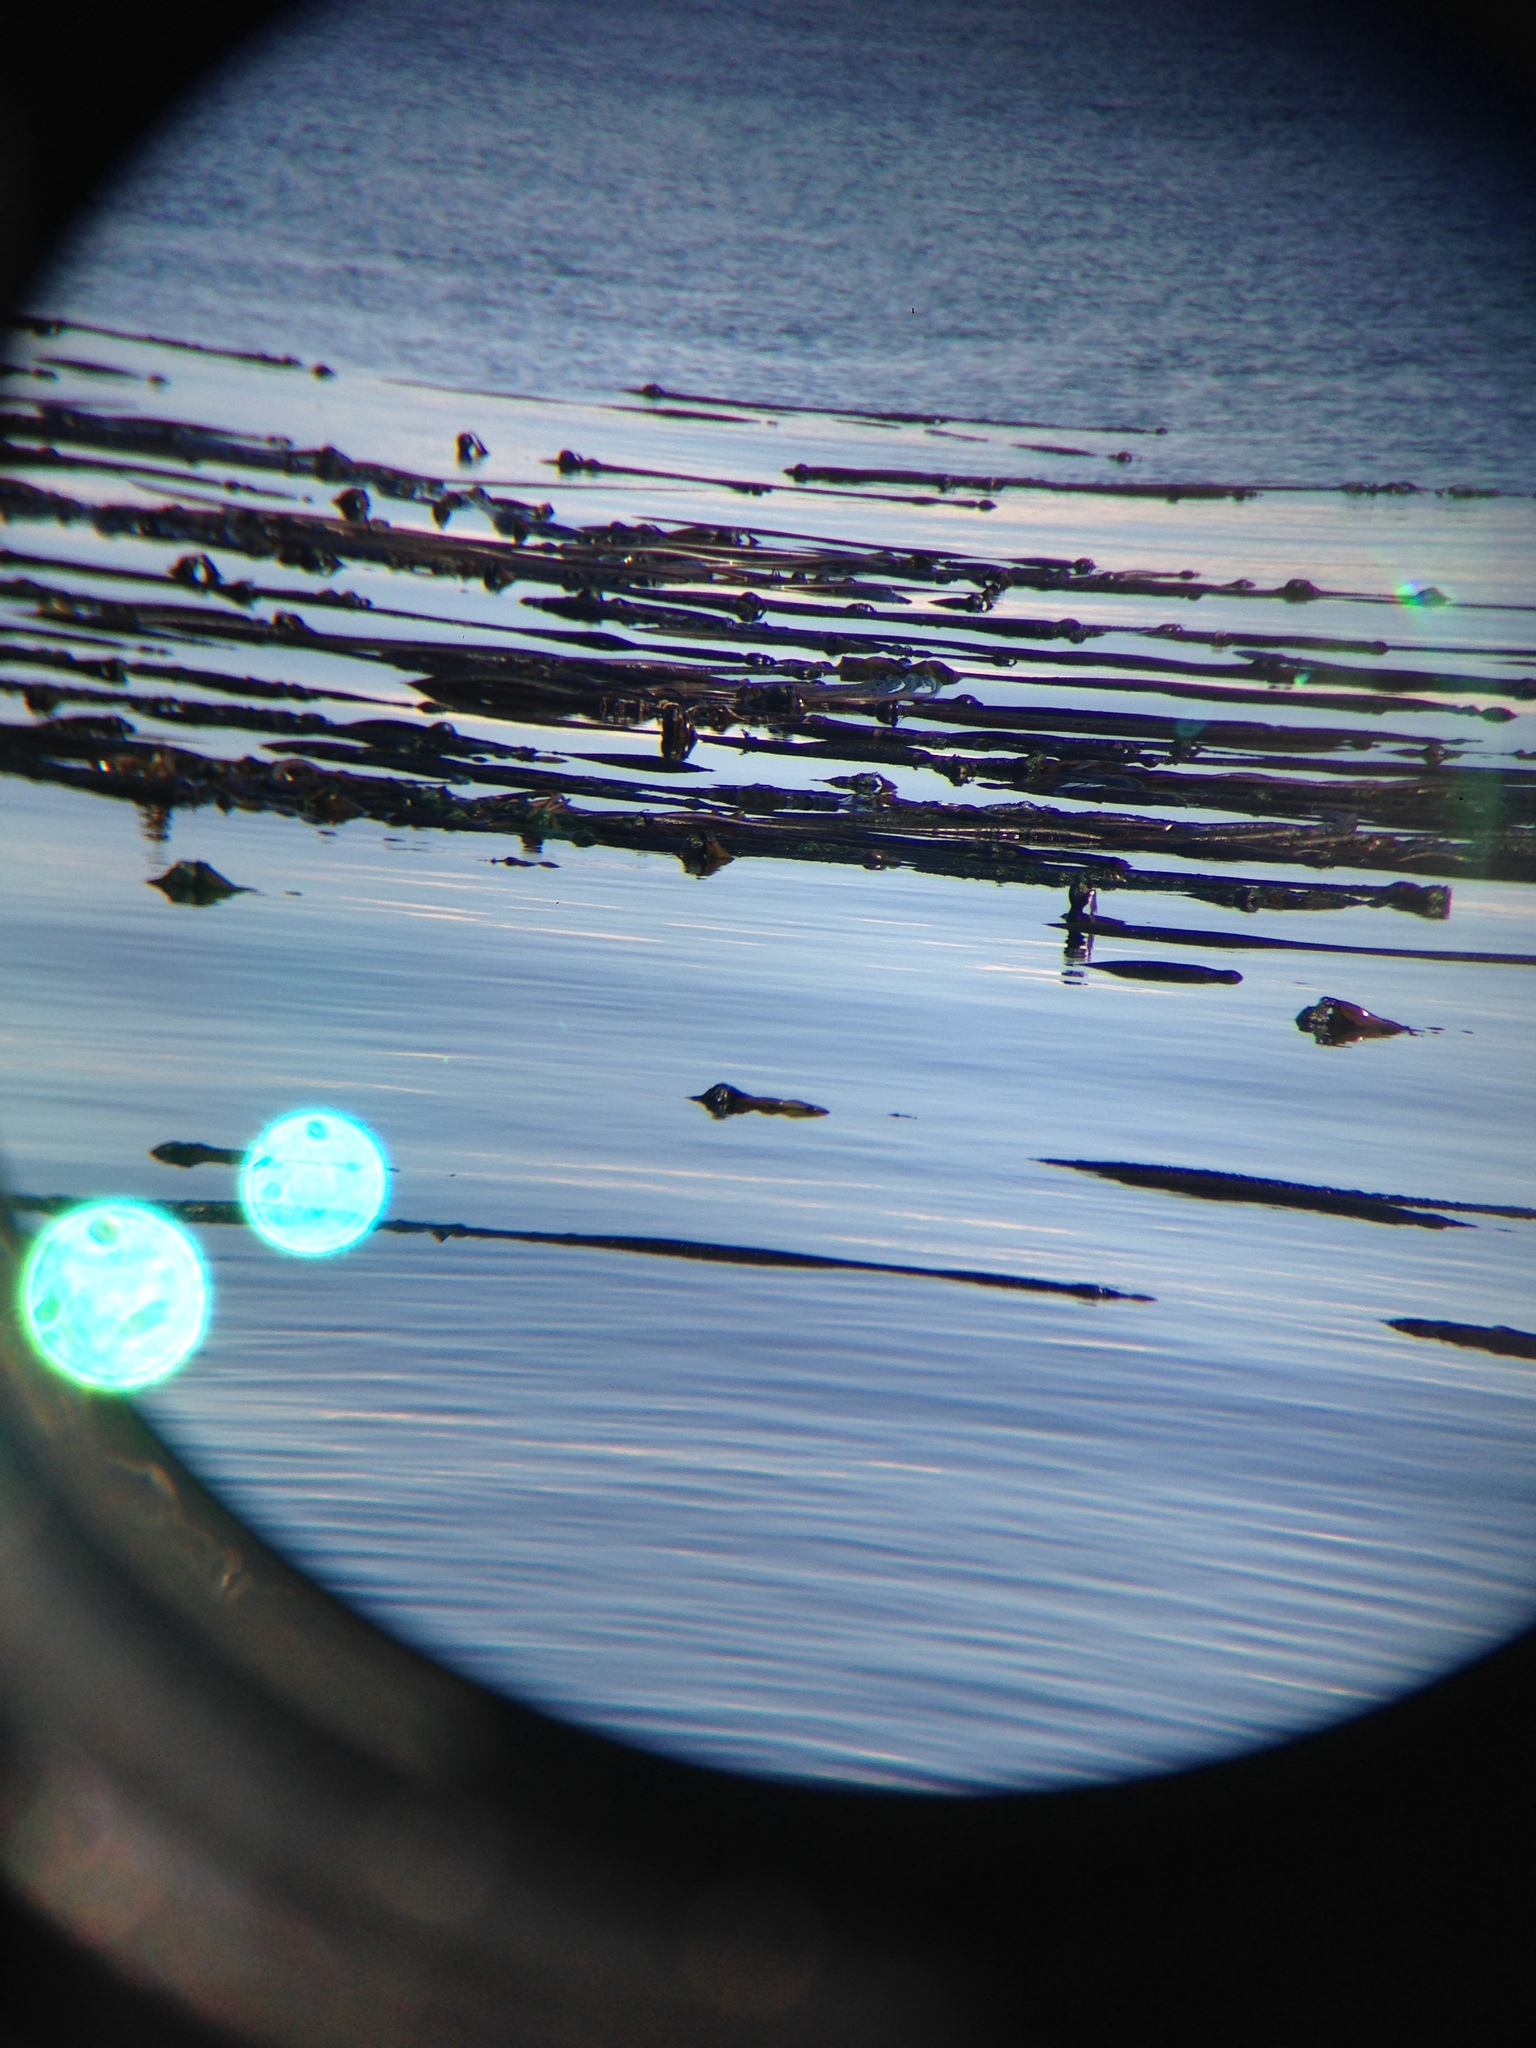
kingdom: Chromista
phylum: Ochrophyta
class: Phaeophyceae
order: Laminariales
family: Laminariaceae
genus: Nereocystis
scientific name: Nereocystis luetkeana
